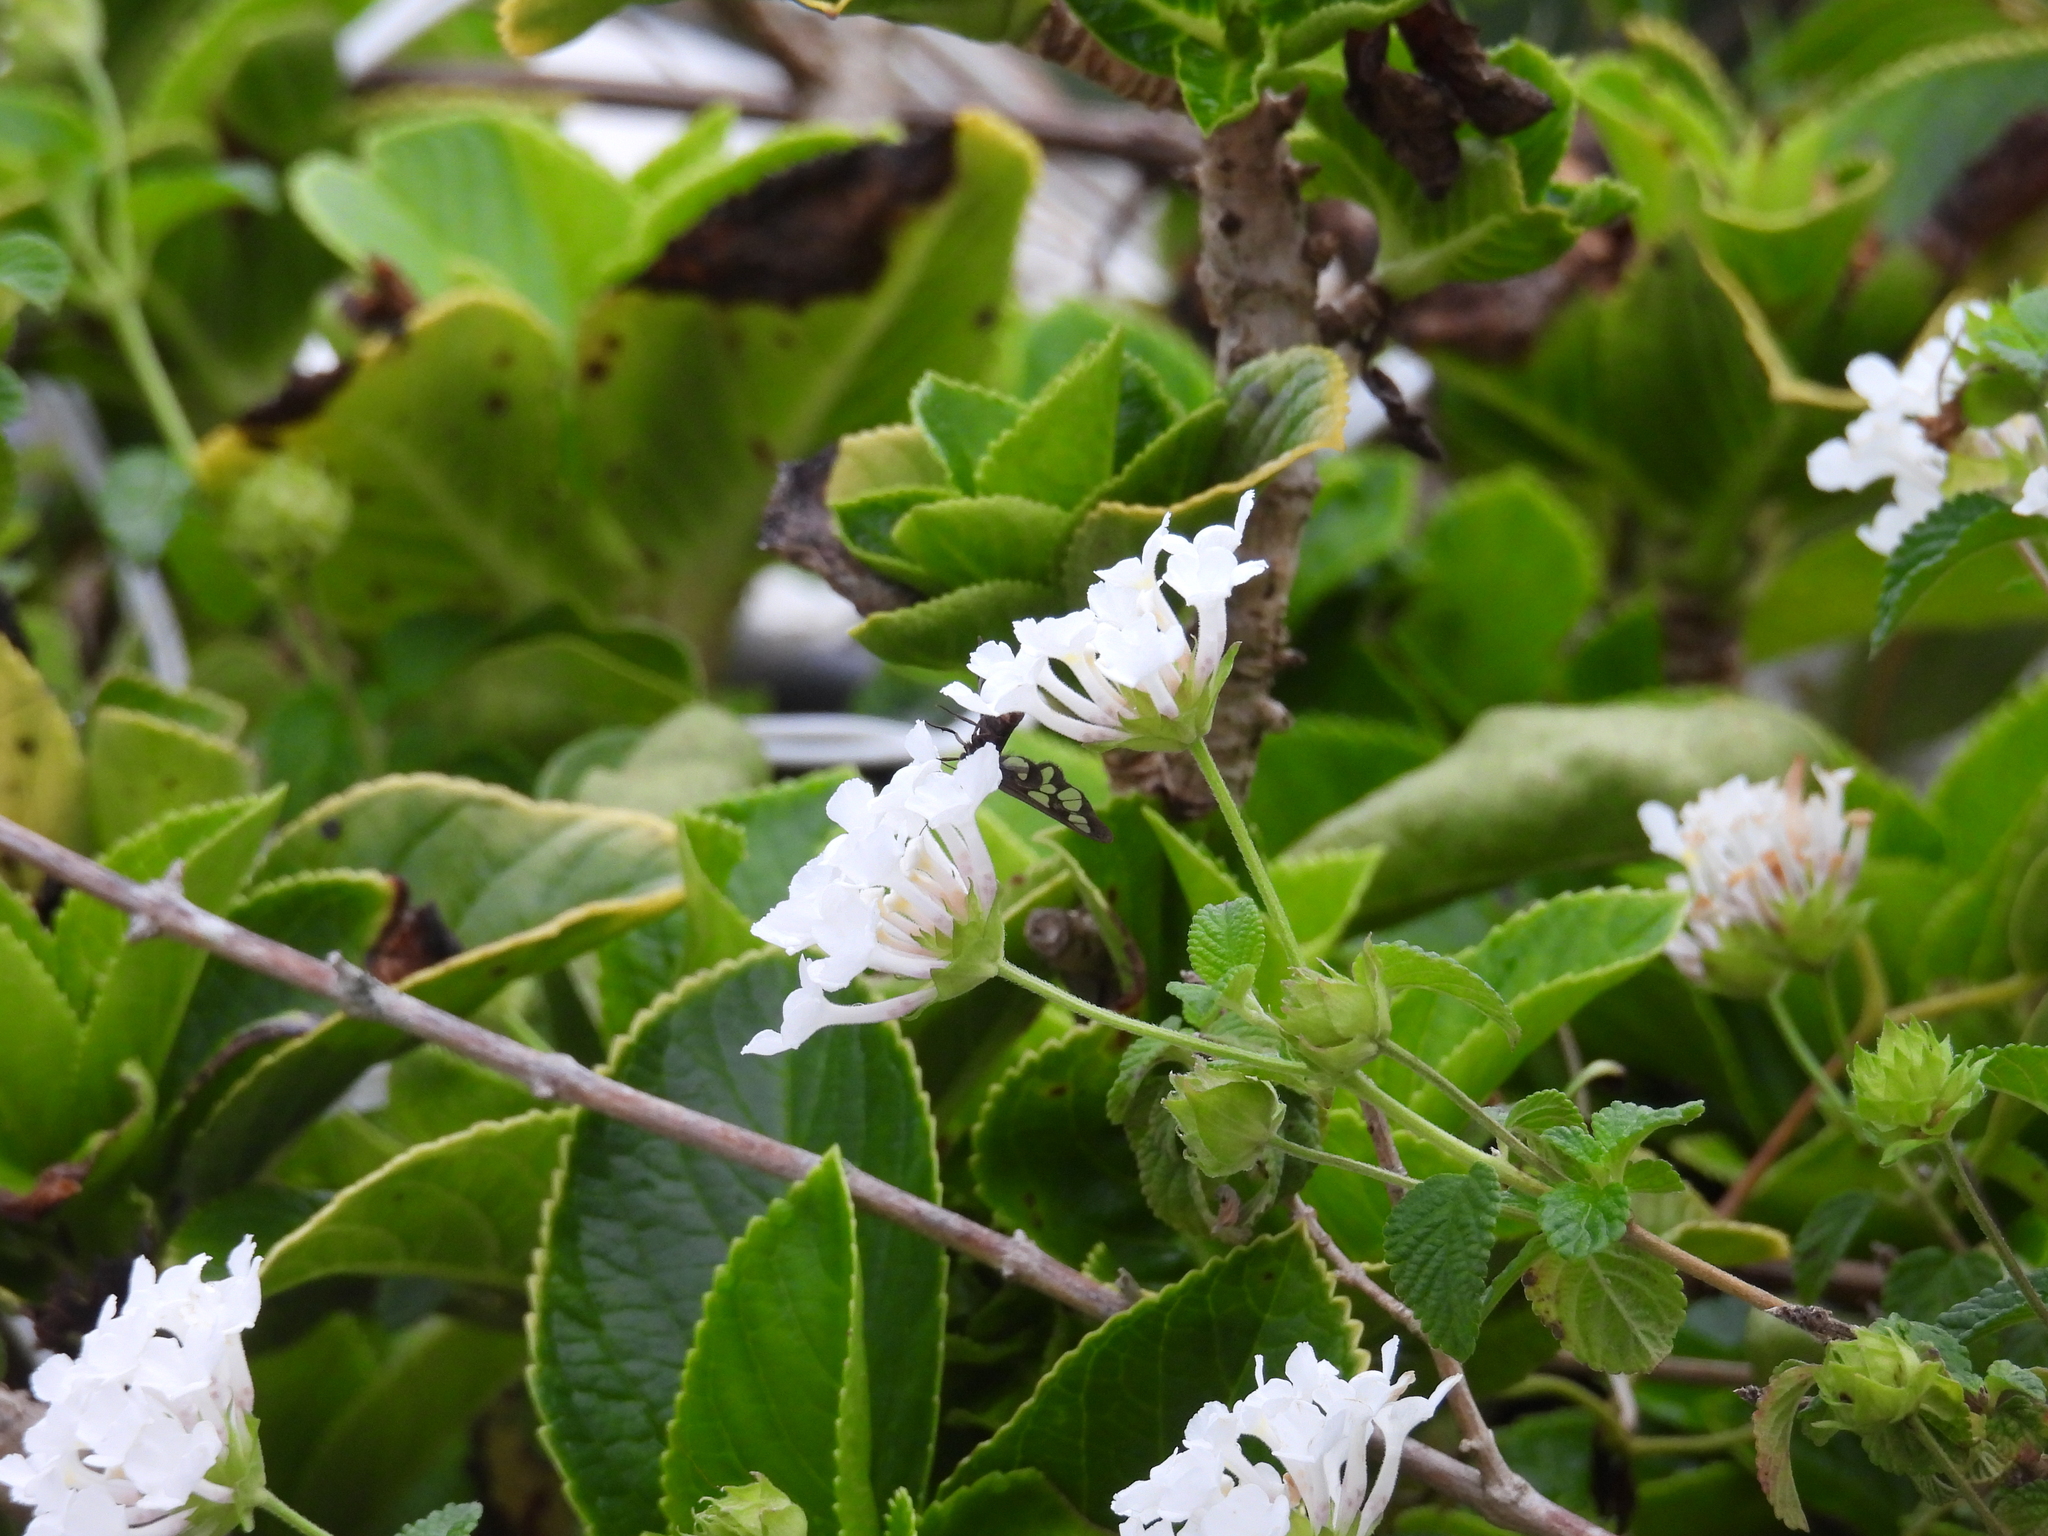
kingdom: Animalia
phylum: Arthropoda
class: Insecta
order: Lepidoptera
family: Erebidae
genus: Syntomoides
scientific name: Syntomoides imaon
